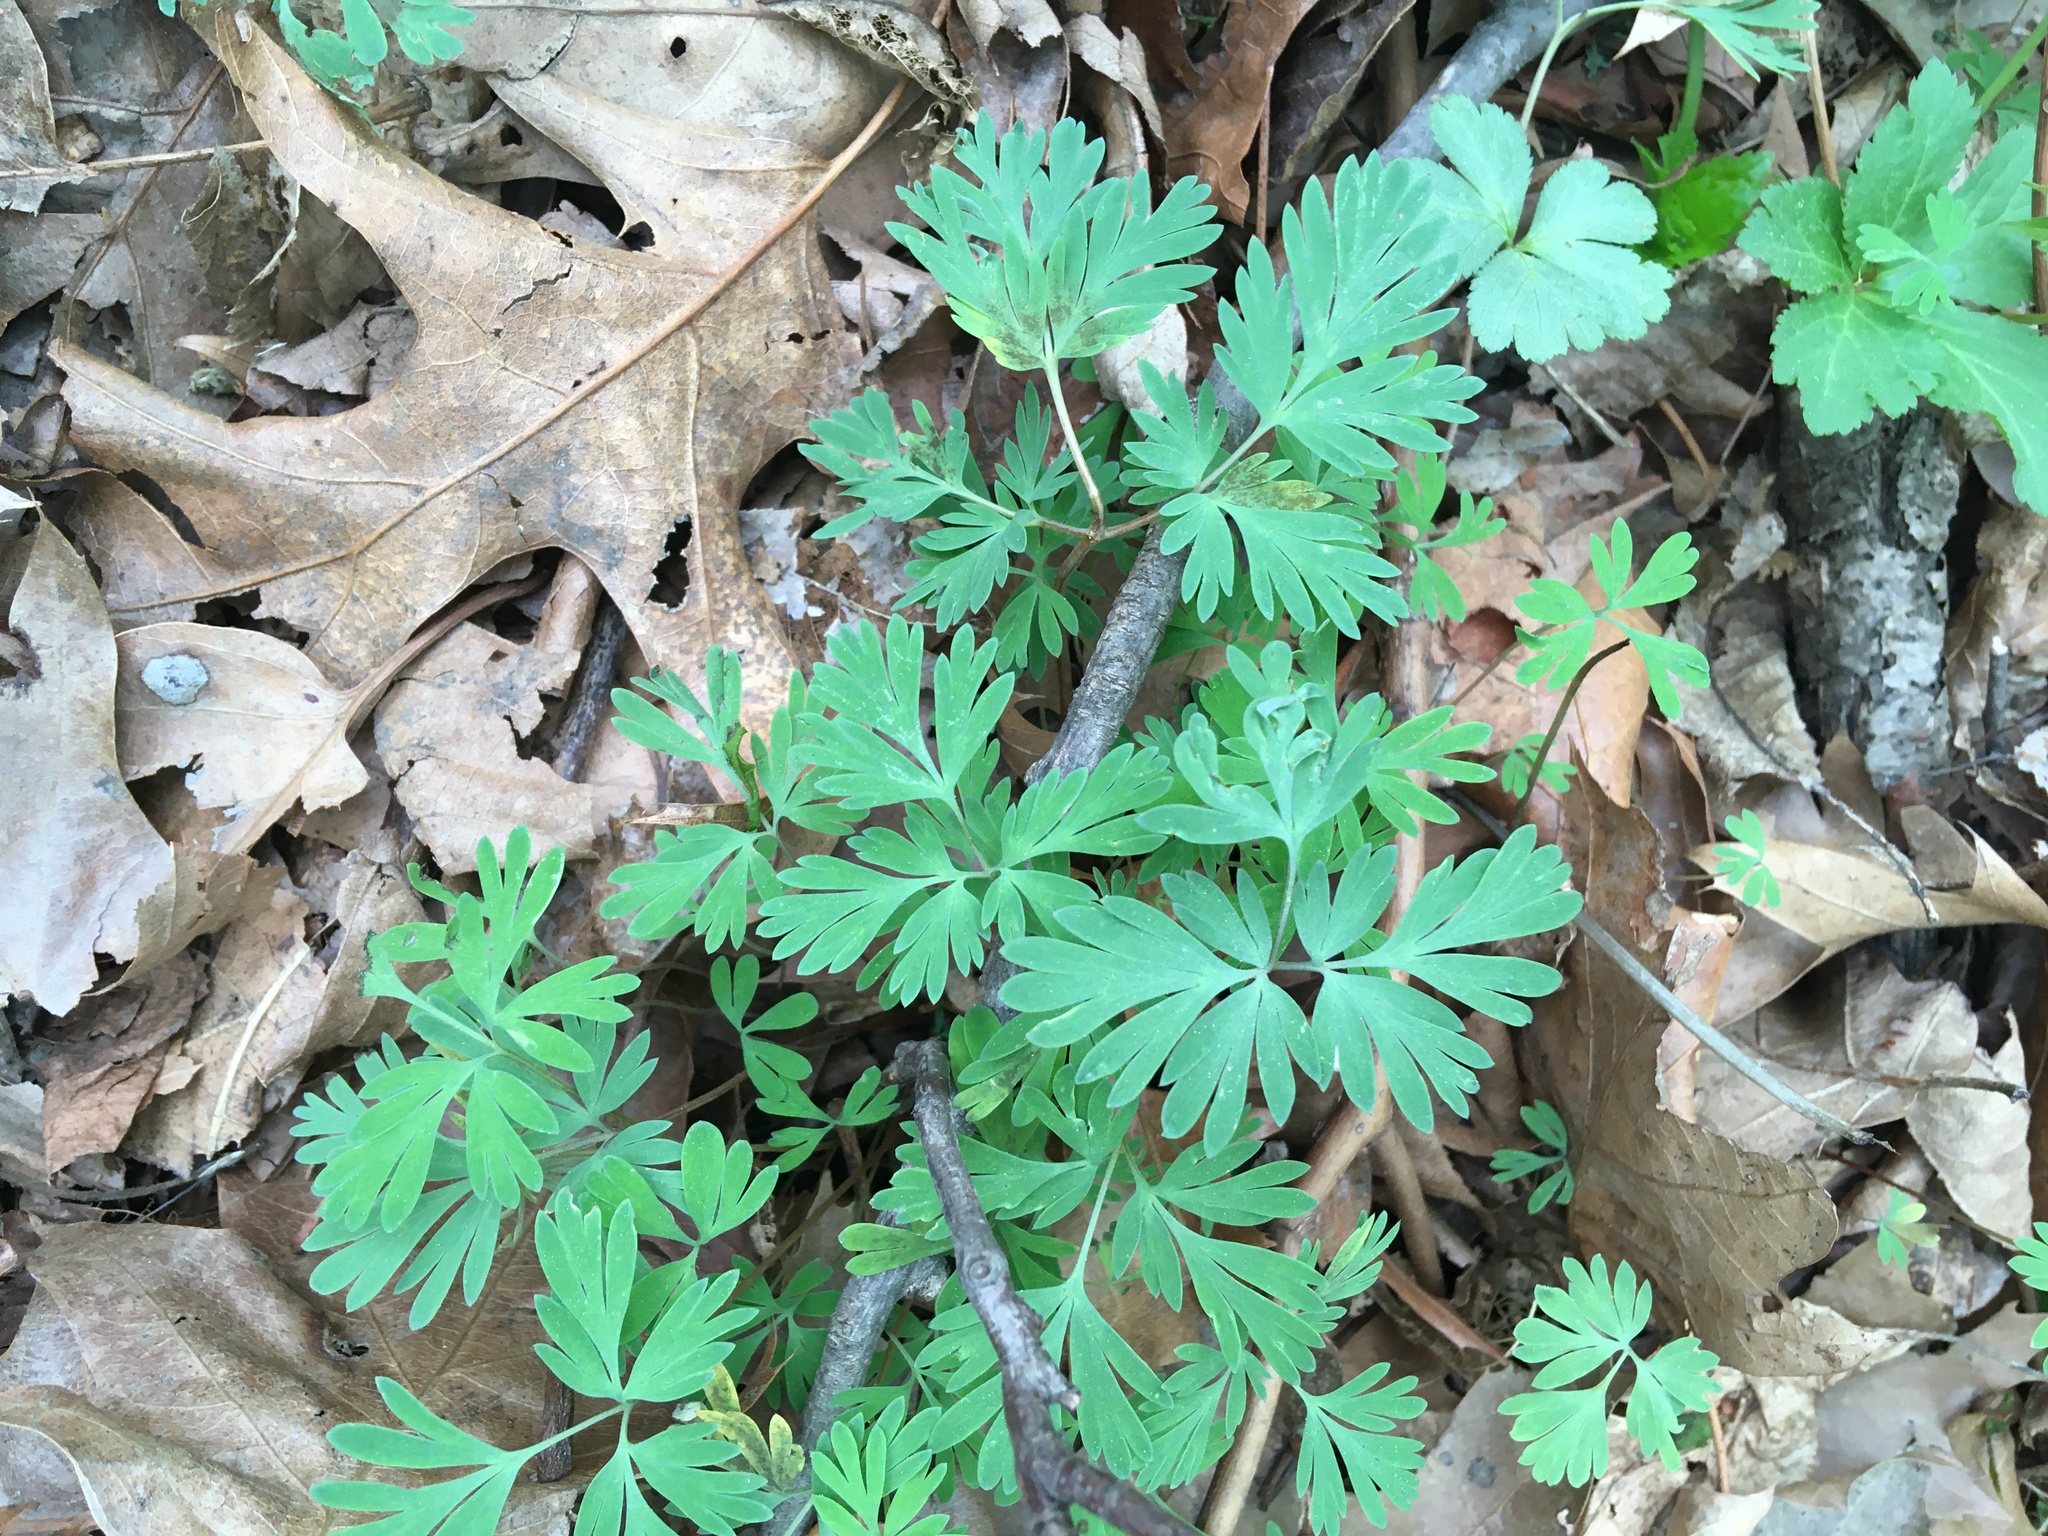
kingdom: Plantae
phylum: Tracheophyta
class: Magnoliopsida
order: Ranunculales
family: Papaveraceae
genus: Dicentra
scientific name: Dicentra cucullaria
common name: Dutchman's breeches
